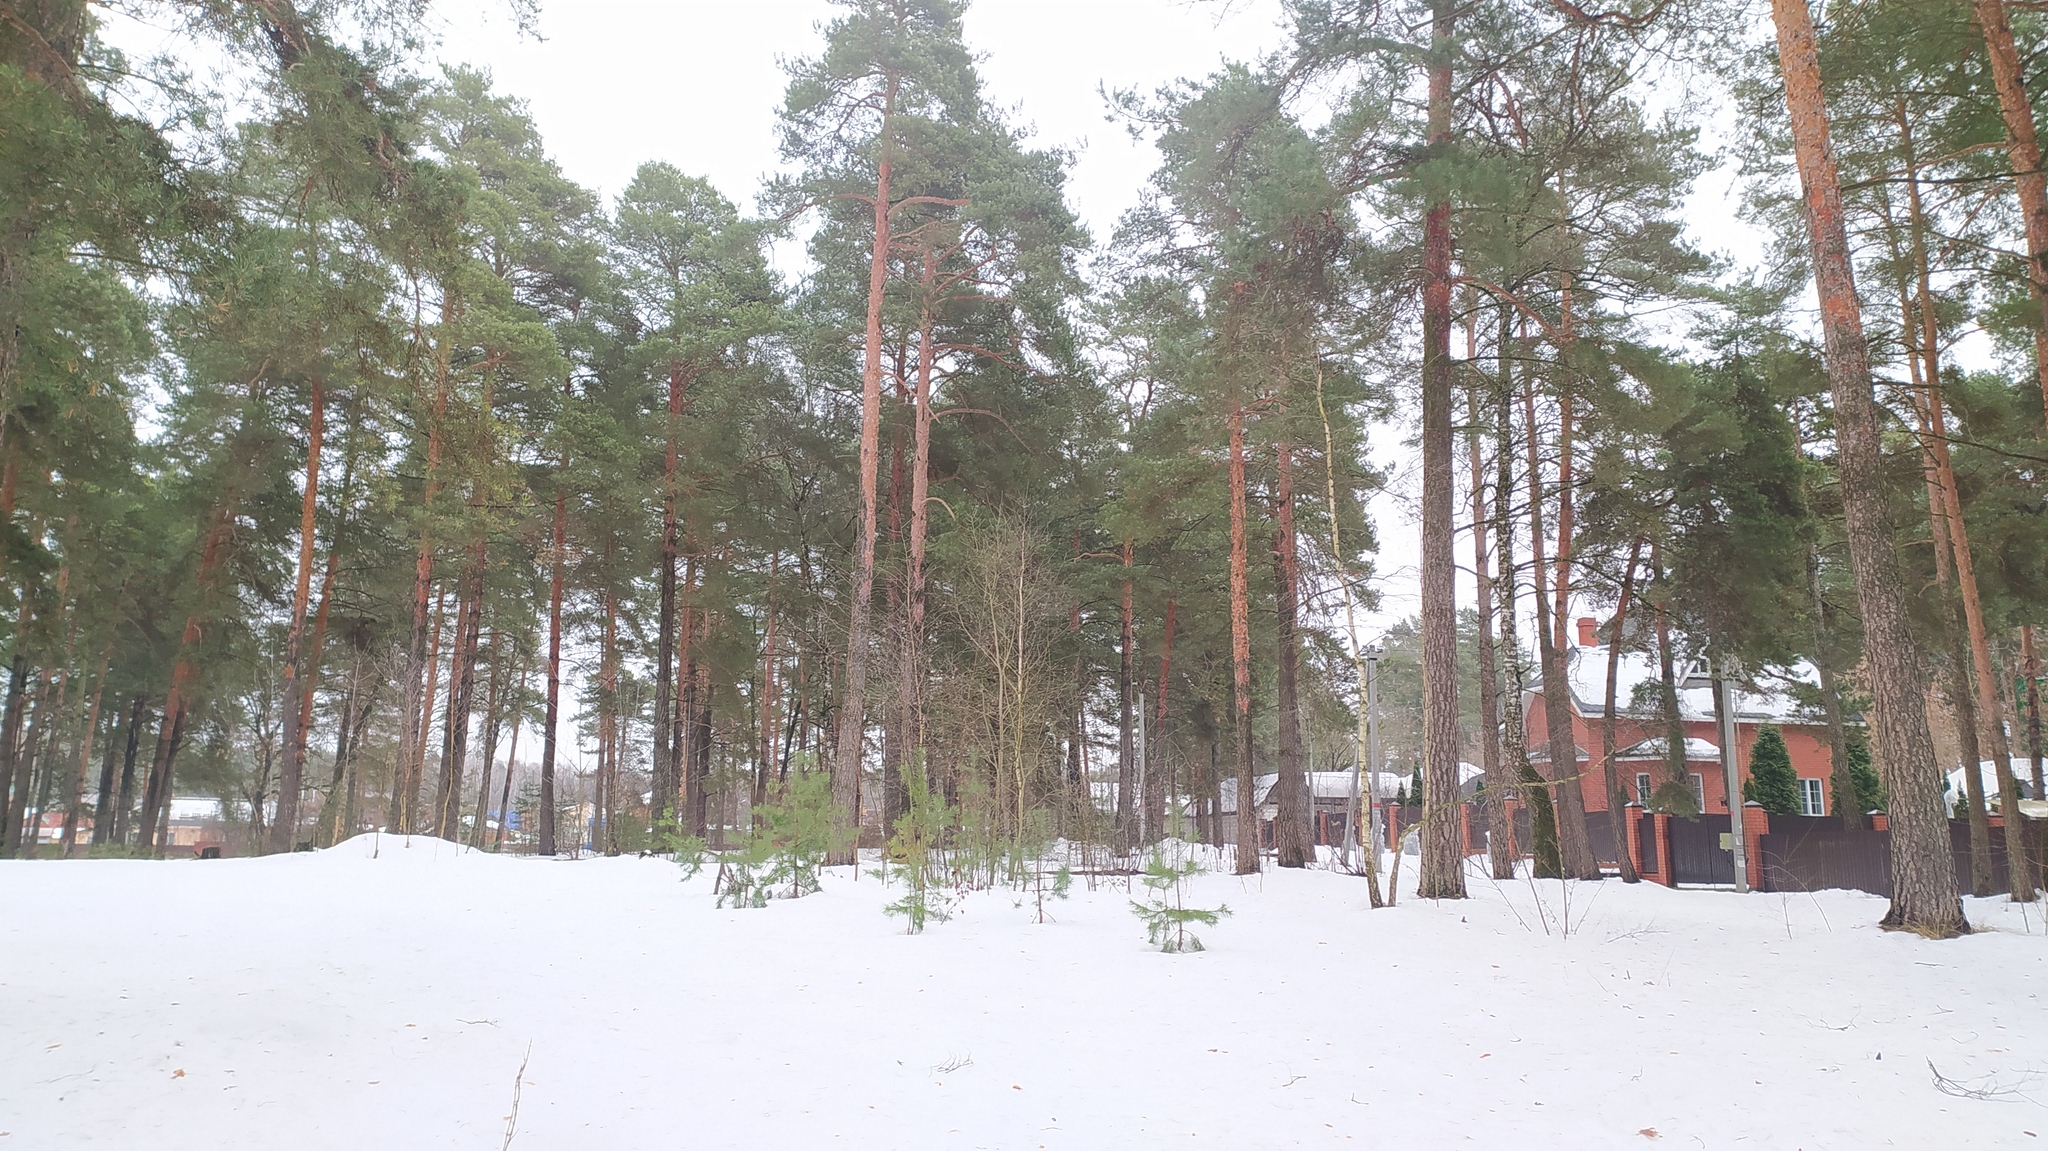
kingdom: Plantae
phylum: Tracheophyta
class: Pinopsida
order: Pinales
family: Pinaceae
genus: Pinus
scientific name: Pinus sylvestris
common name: Scots pine
